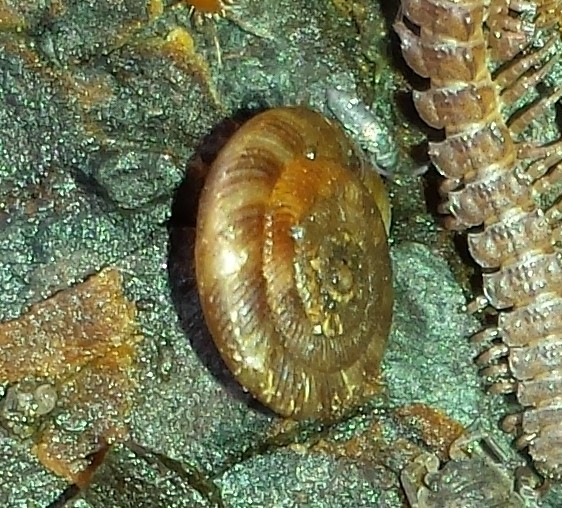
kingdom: Animalia
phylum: Mollusca
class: Gastropoda
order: Stylommatophora
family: Discidae
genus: Discus
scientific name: Discus rotundatus
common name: Rounded snail
